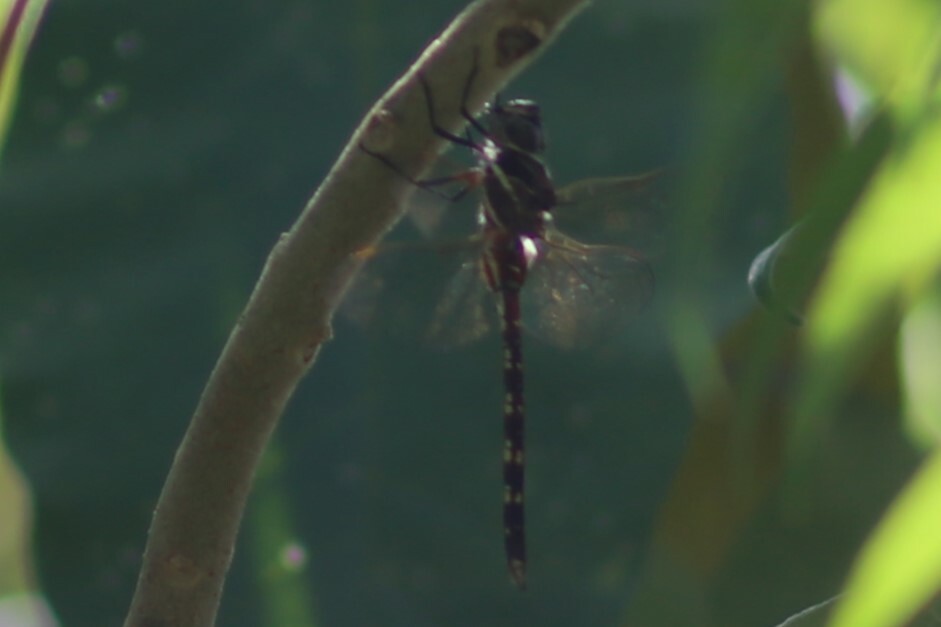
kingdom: Animalia
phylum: Arthropoda
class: Insecta
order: Odonata
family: Aeshnidae
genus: Aeshna
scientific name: Aeshna brevistyla
